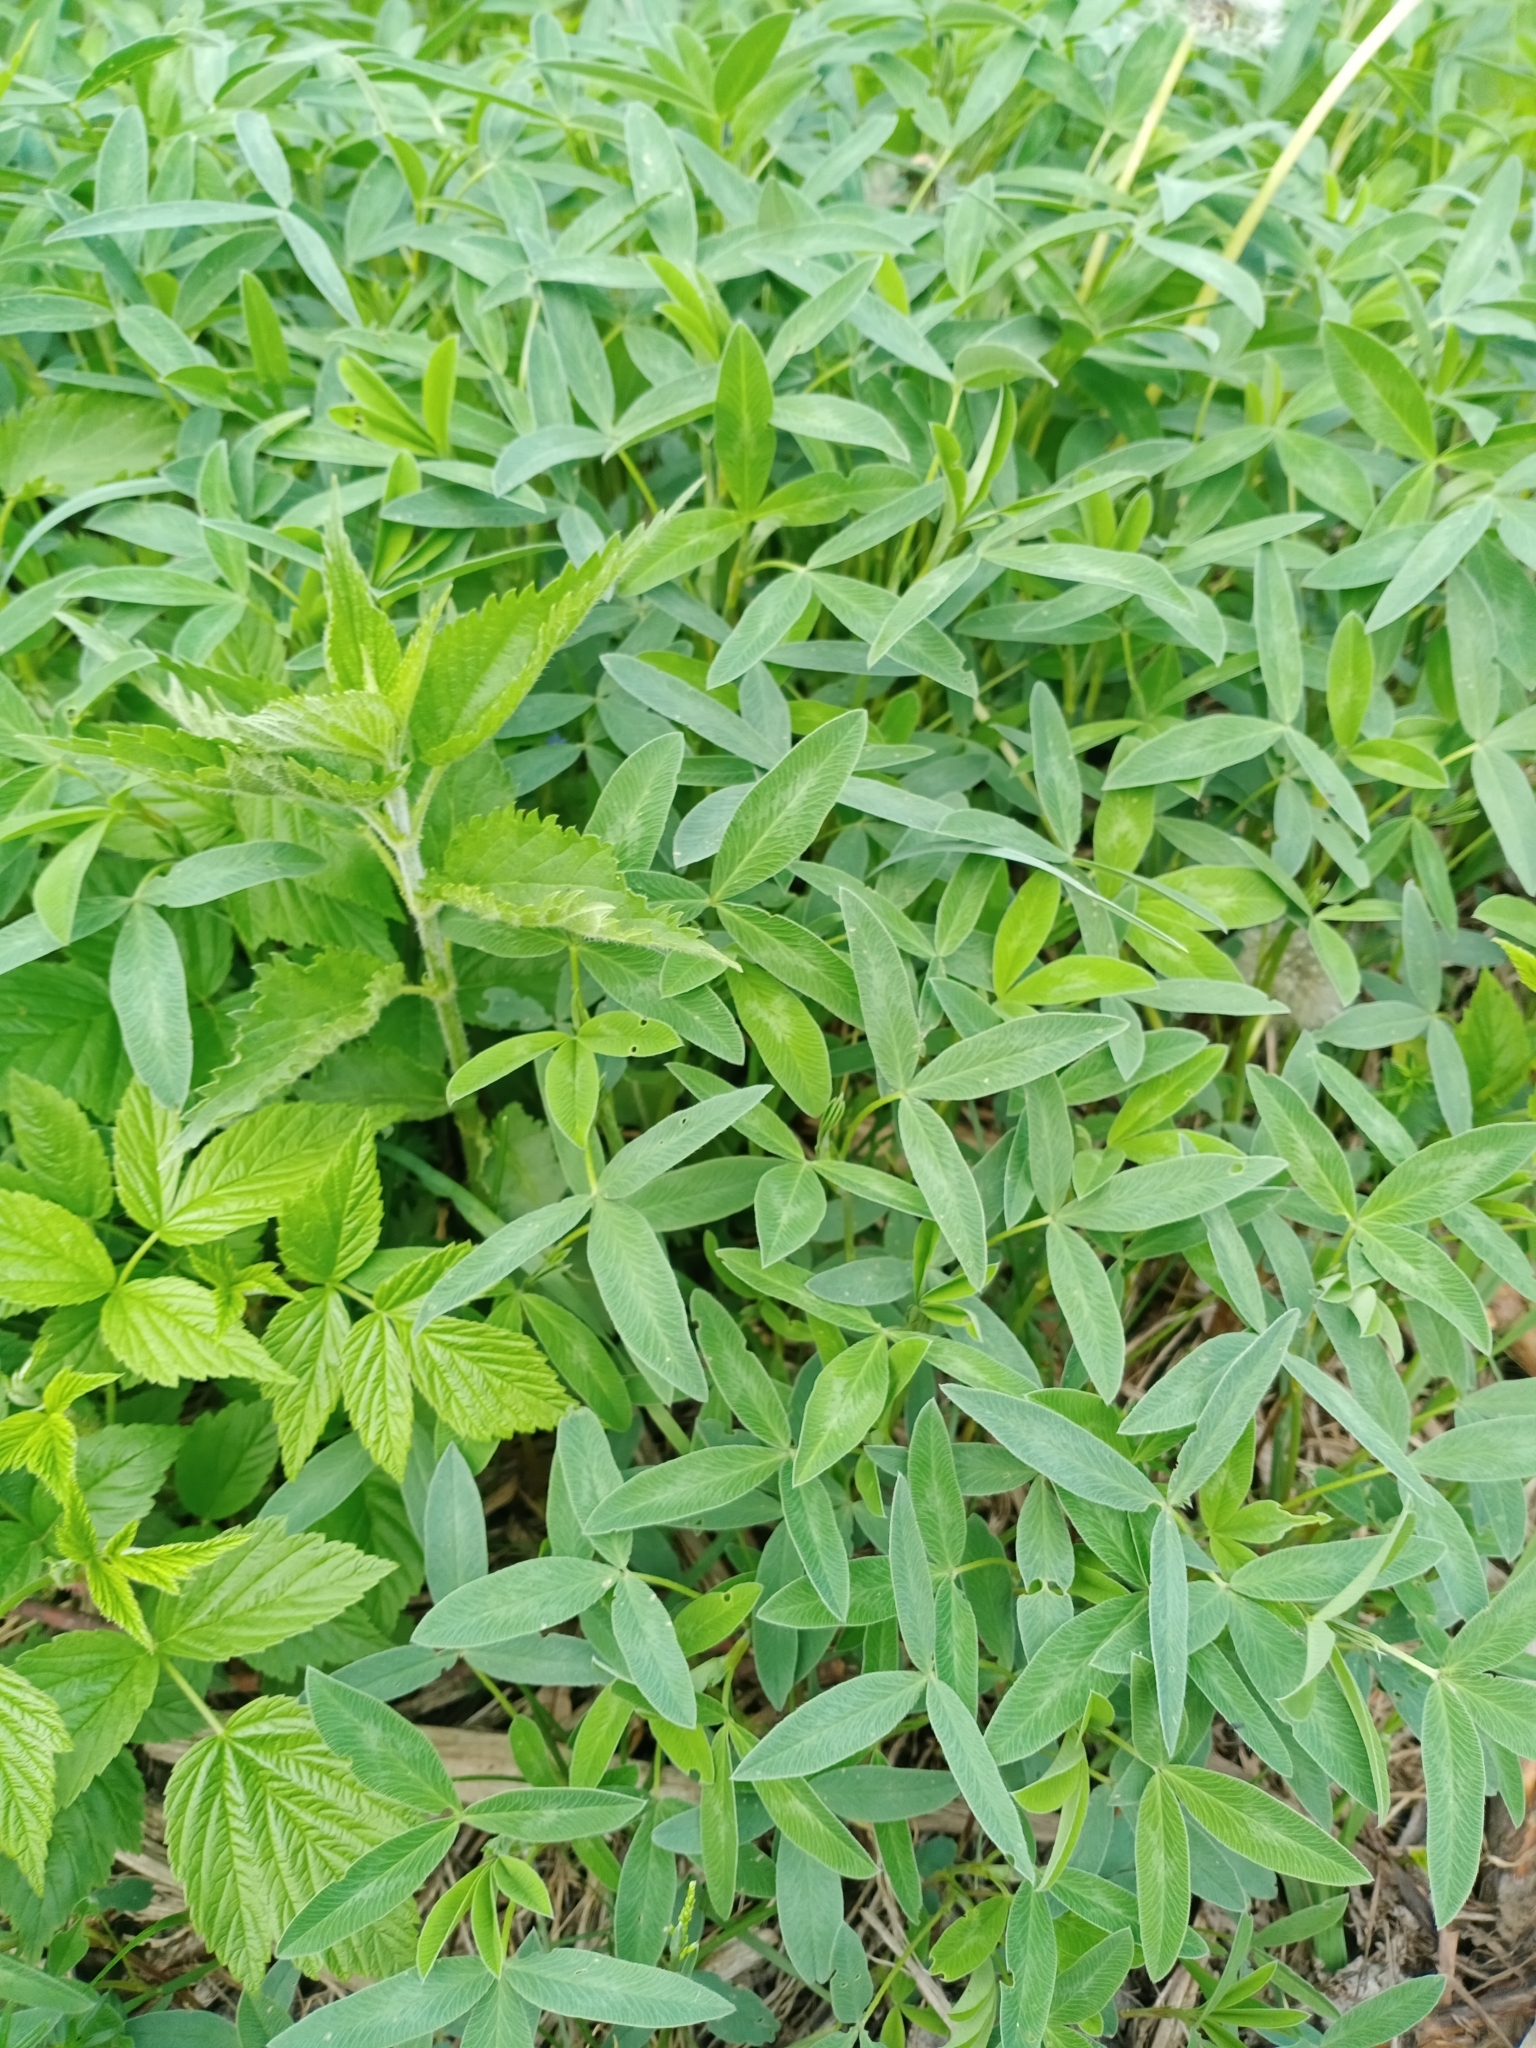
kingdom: Plantae
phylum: Tracheophyta
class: Magnoliopsida
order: Fabales
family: Fabaceae
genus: Trifolium
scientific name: Trifolium medium
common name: Zigzag clover
